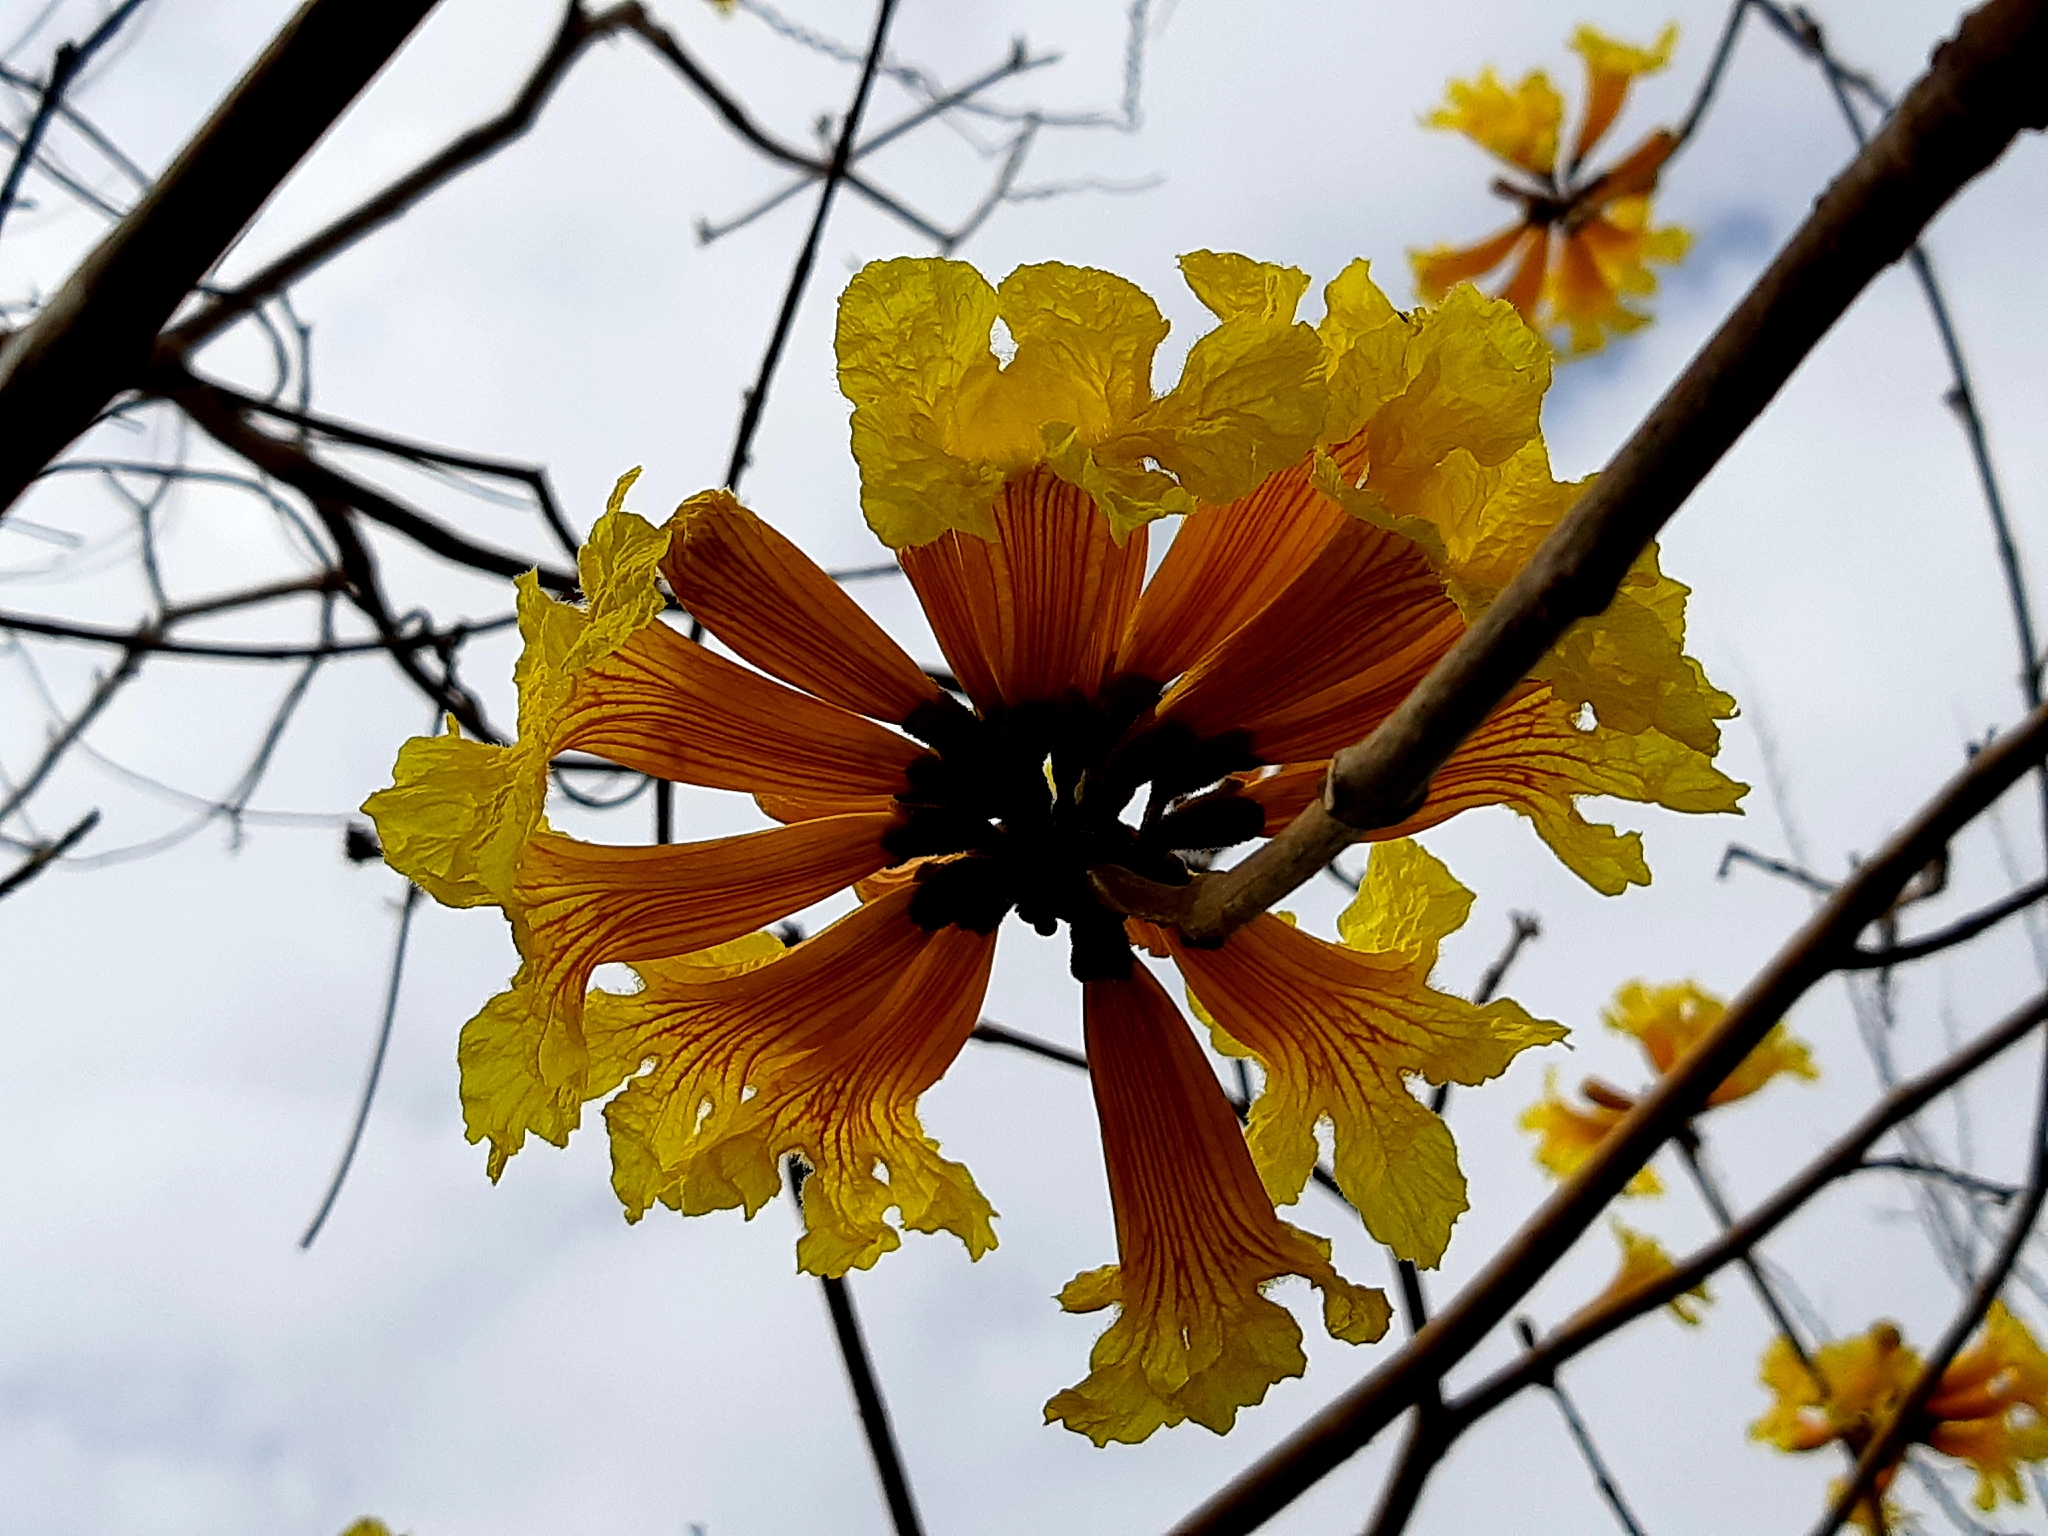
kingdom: Plantae
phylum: Tracheophyta
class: Magnoliopsida
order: Lamiales
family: Bignoniaceae
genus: Handroanthus
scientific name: Handroanthus chrysanthus
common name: Trumpet trees
